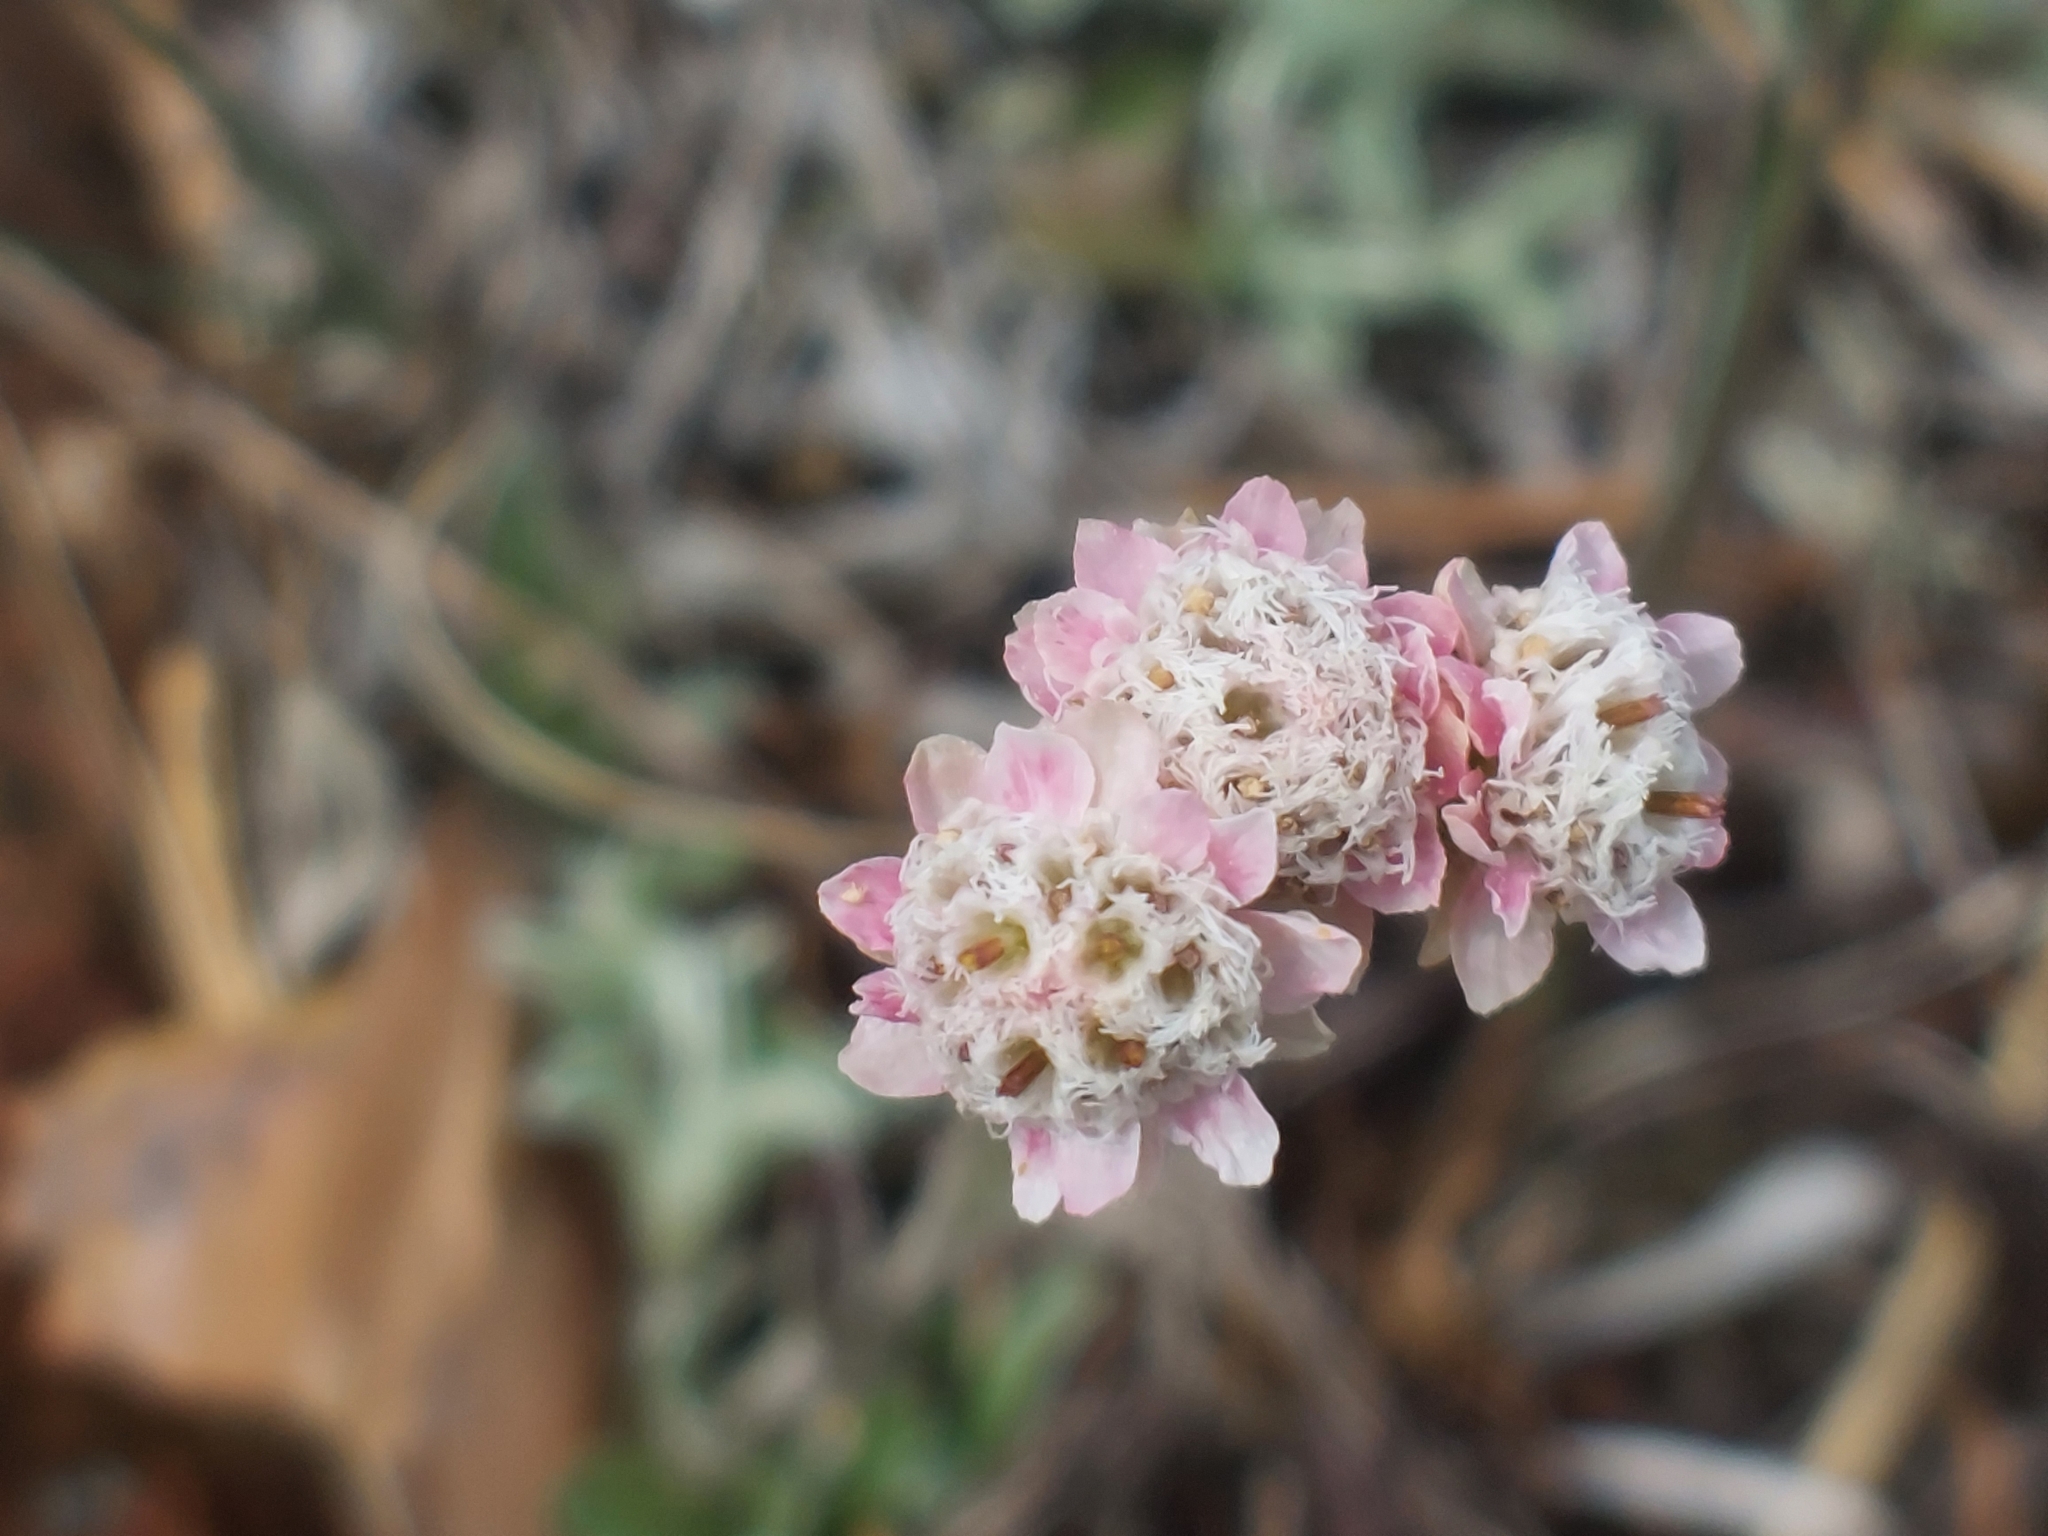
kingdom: Plantae
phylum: Tracheophyta
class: Magnoliopsida
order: Asterales
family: Asteraceae
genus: Antennaria
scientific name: Antennaria dioica
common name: Mountain everlasting
